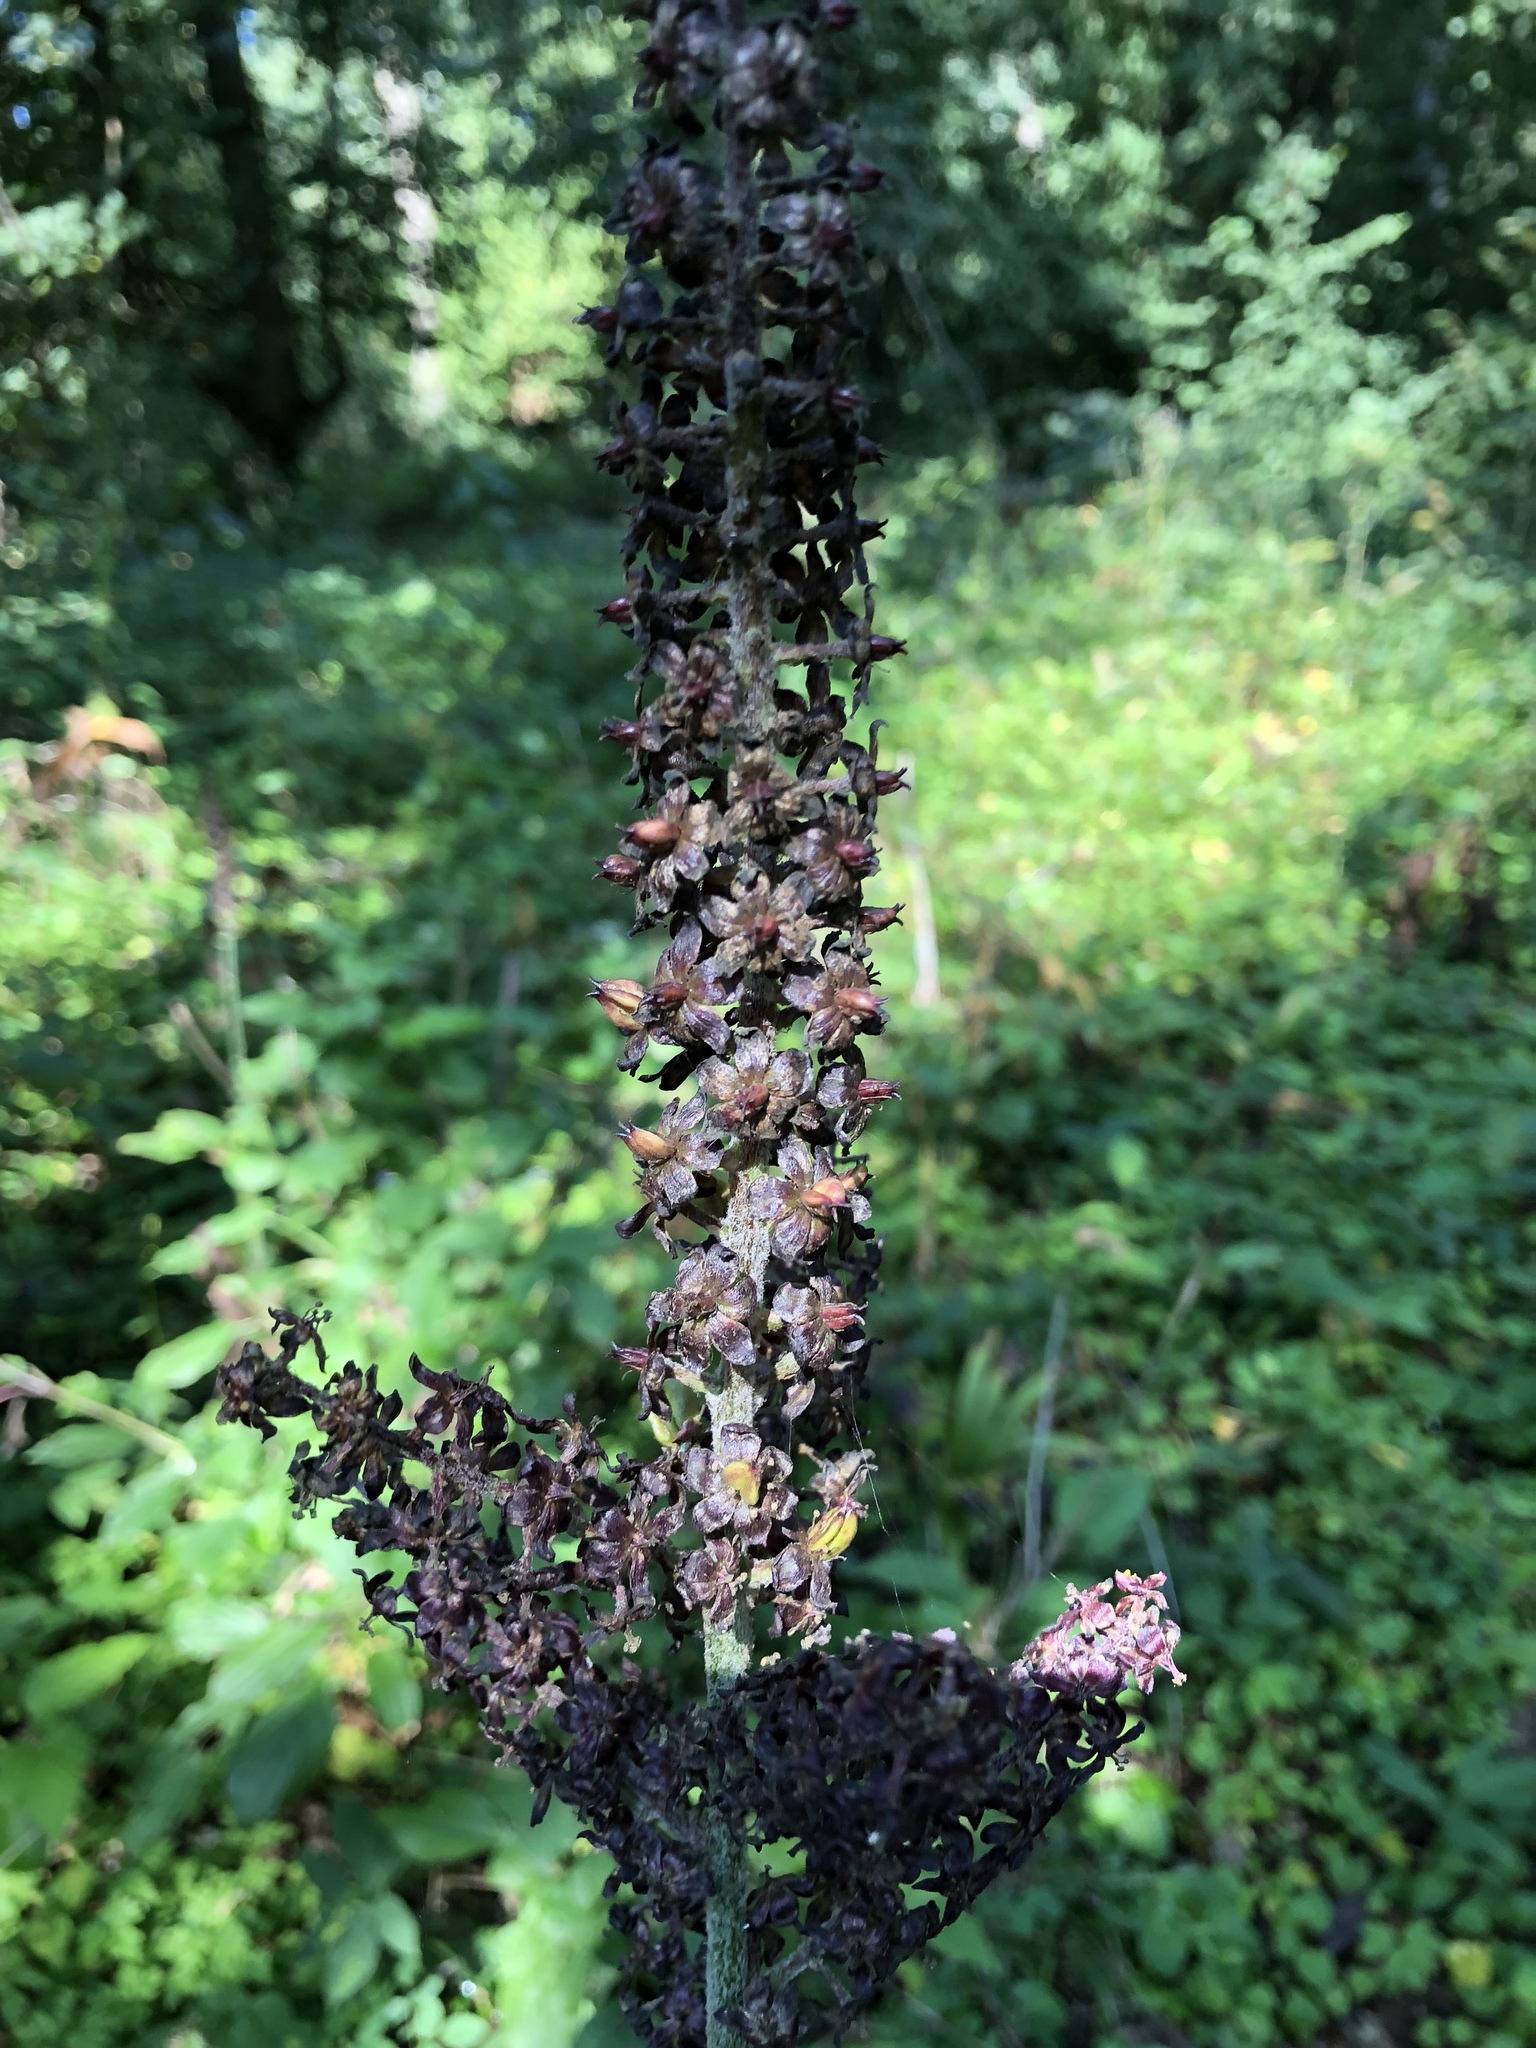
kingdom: Plantae
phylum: Tracheophyta
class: Liliopsida
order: Liliales
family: Melanthiaceae
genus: Veratrum
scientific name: Veratrum nigrum
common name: Black veratrum
